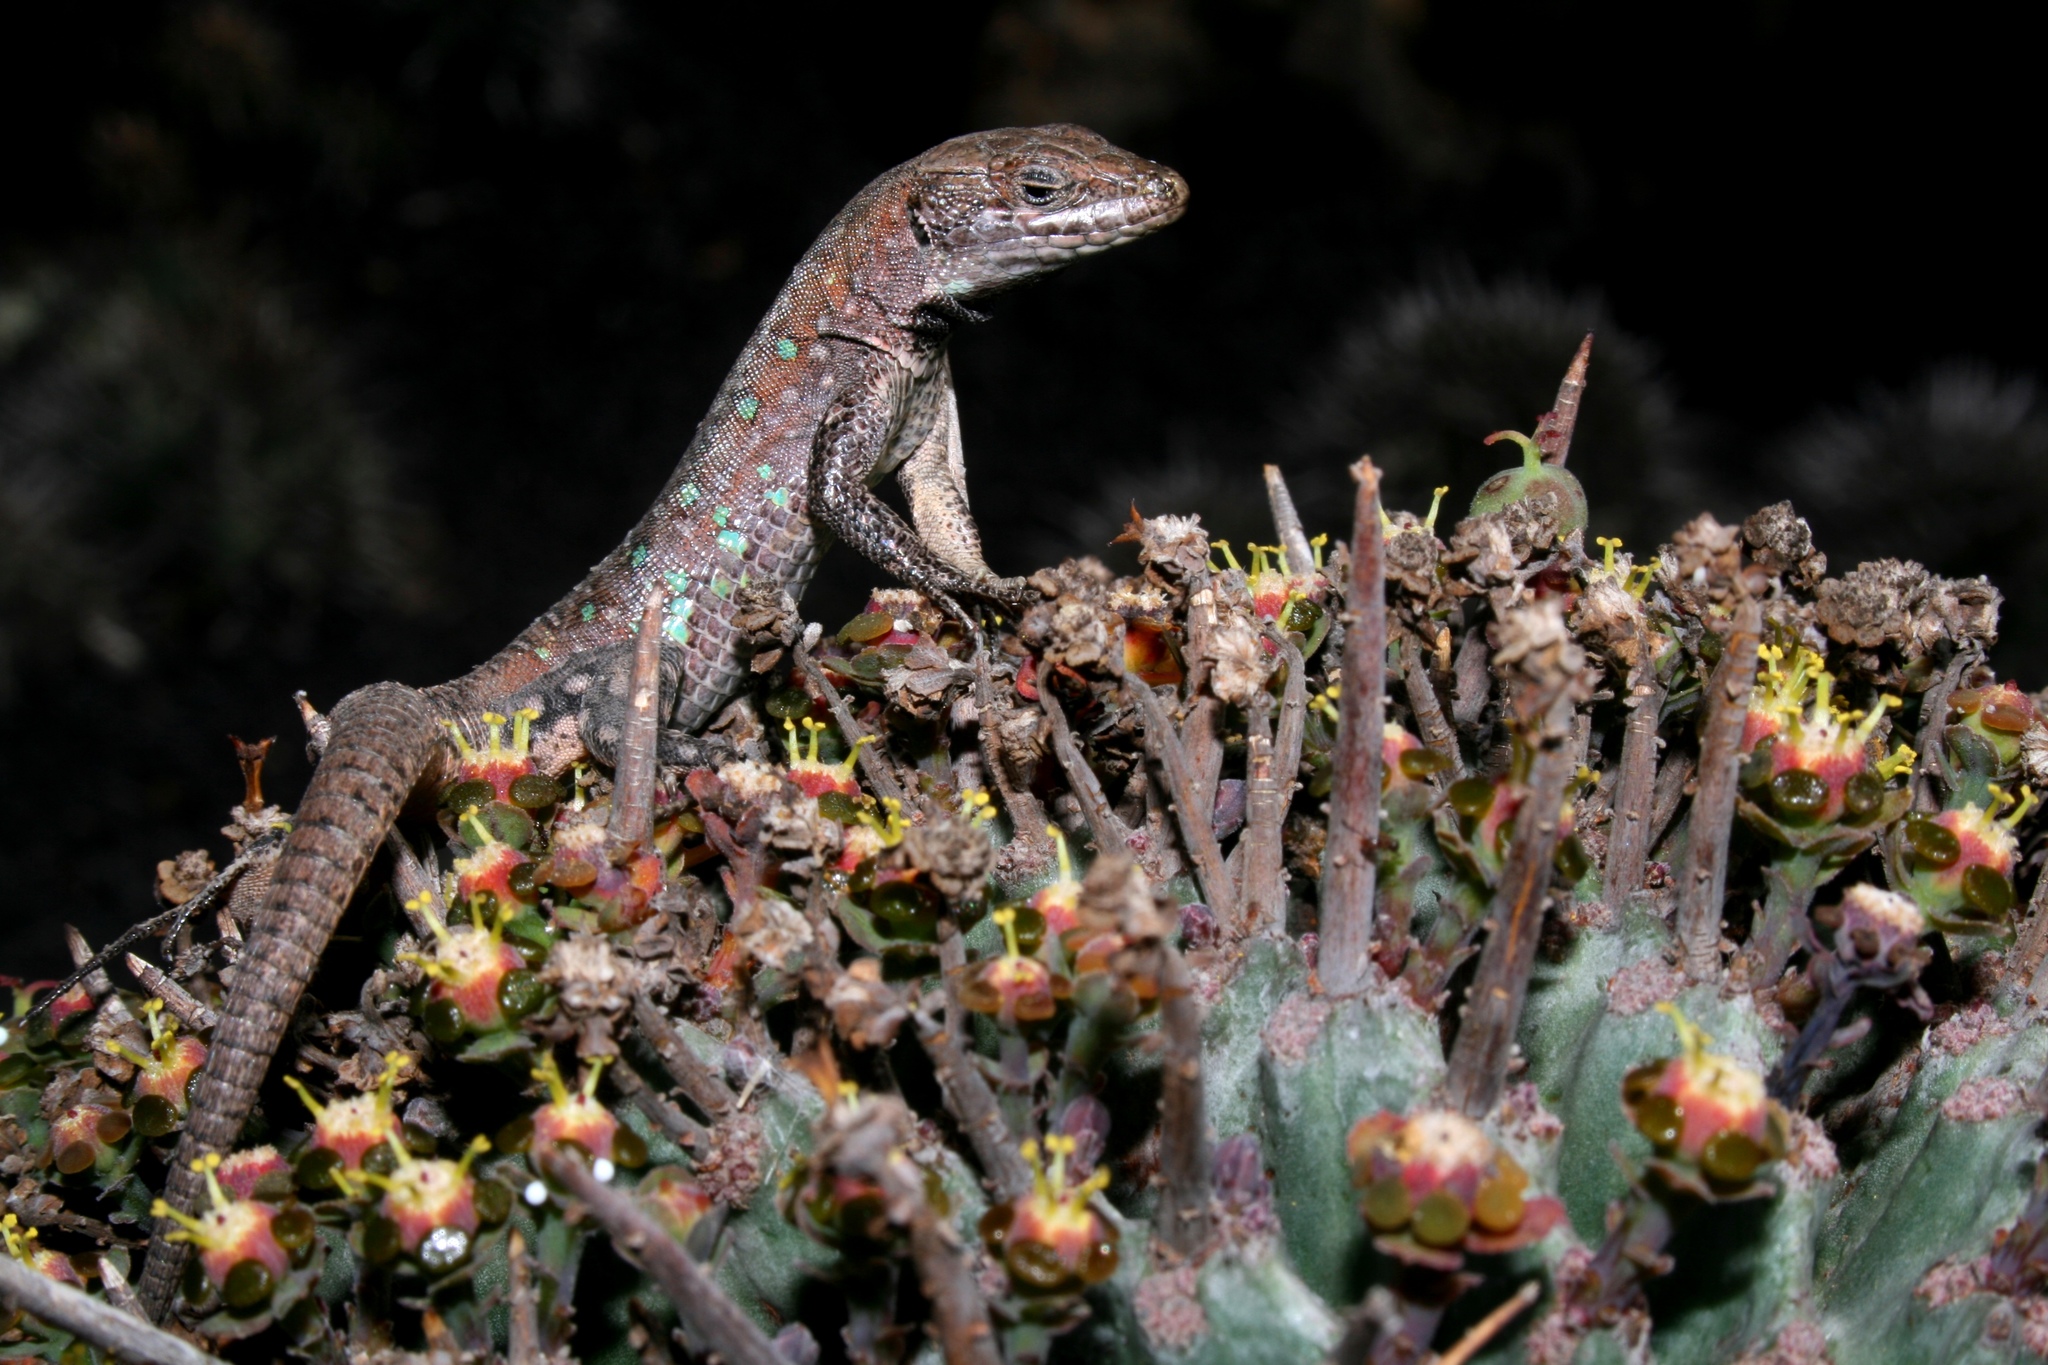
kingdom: Animalia
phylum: Chordata
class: Squamata
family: Lacertidae
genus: Gallotia
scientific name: Gallotia atlantica
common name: Atlantic lizard
